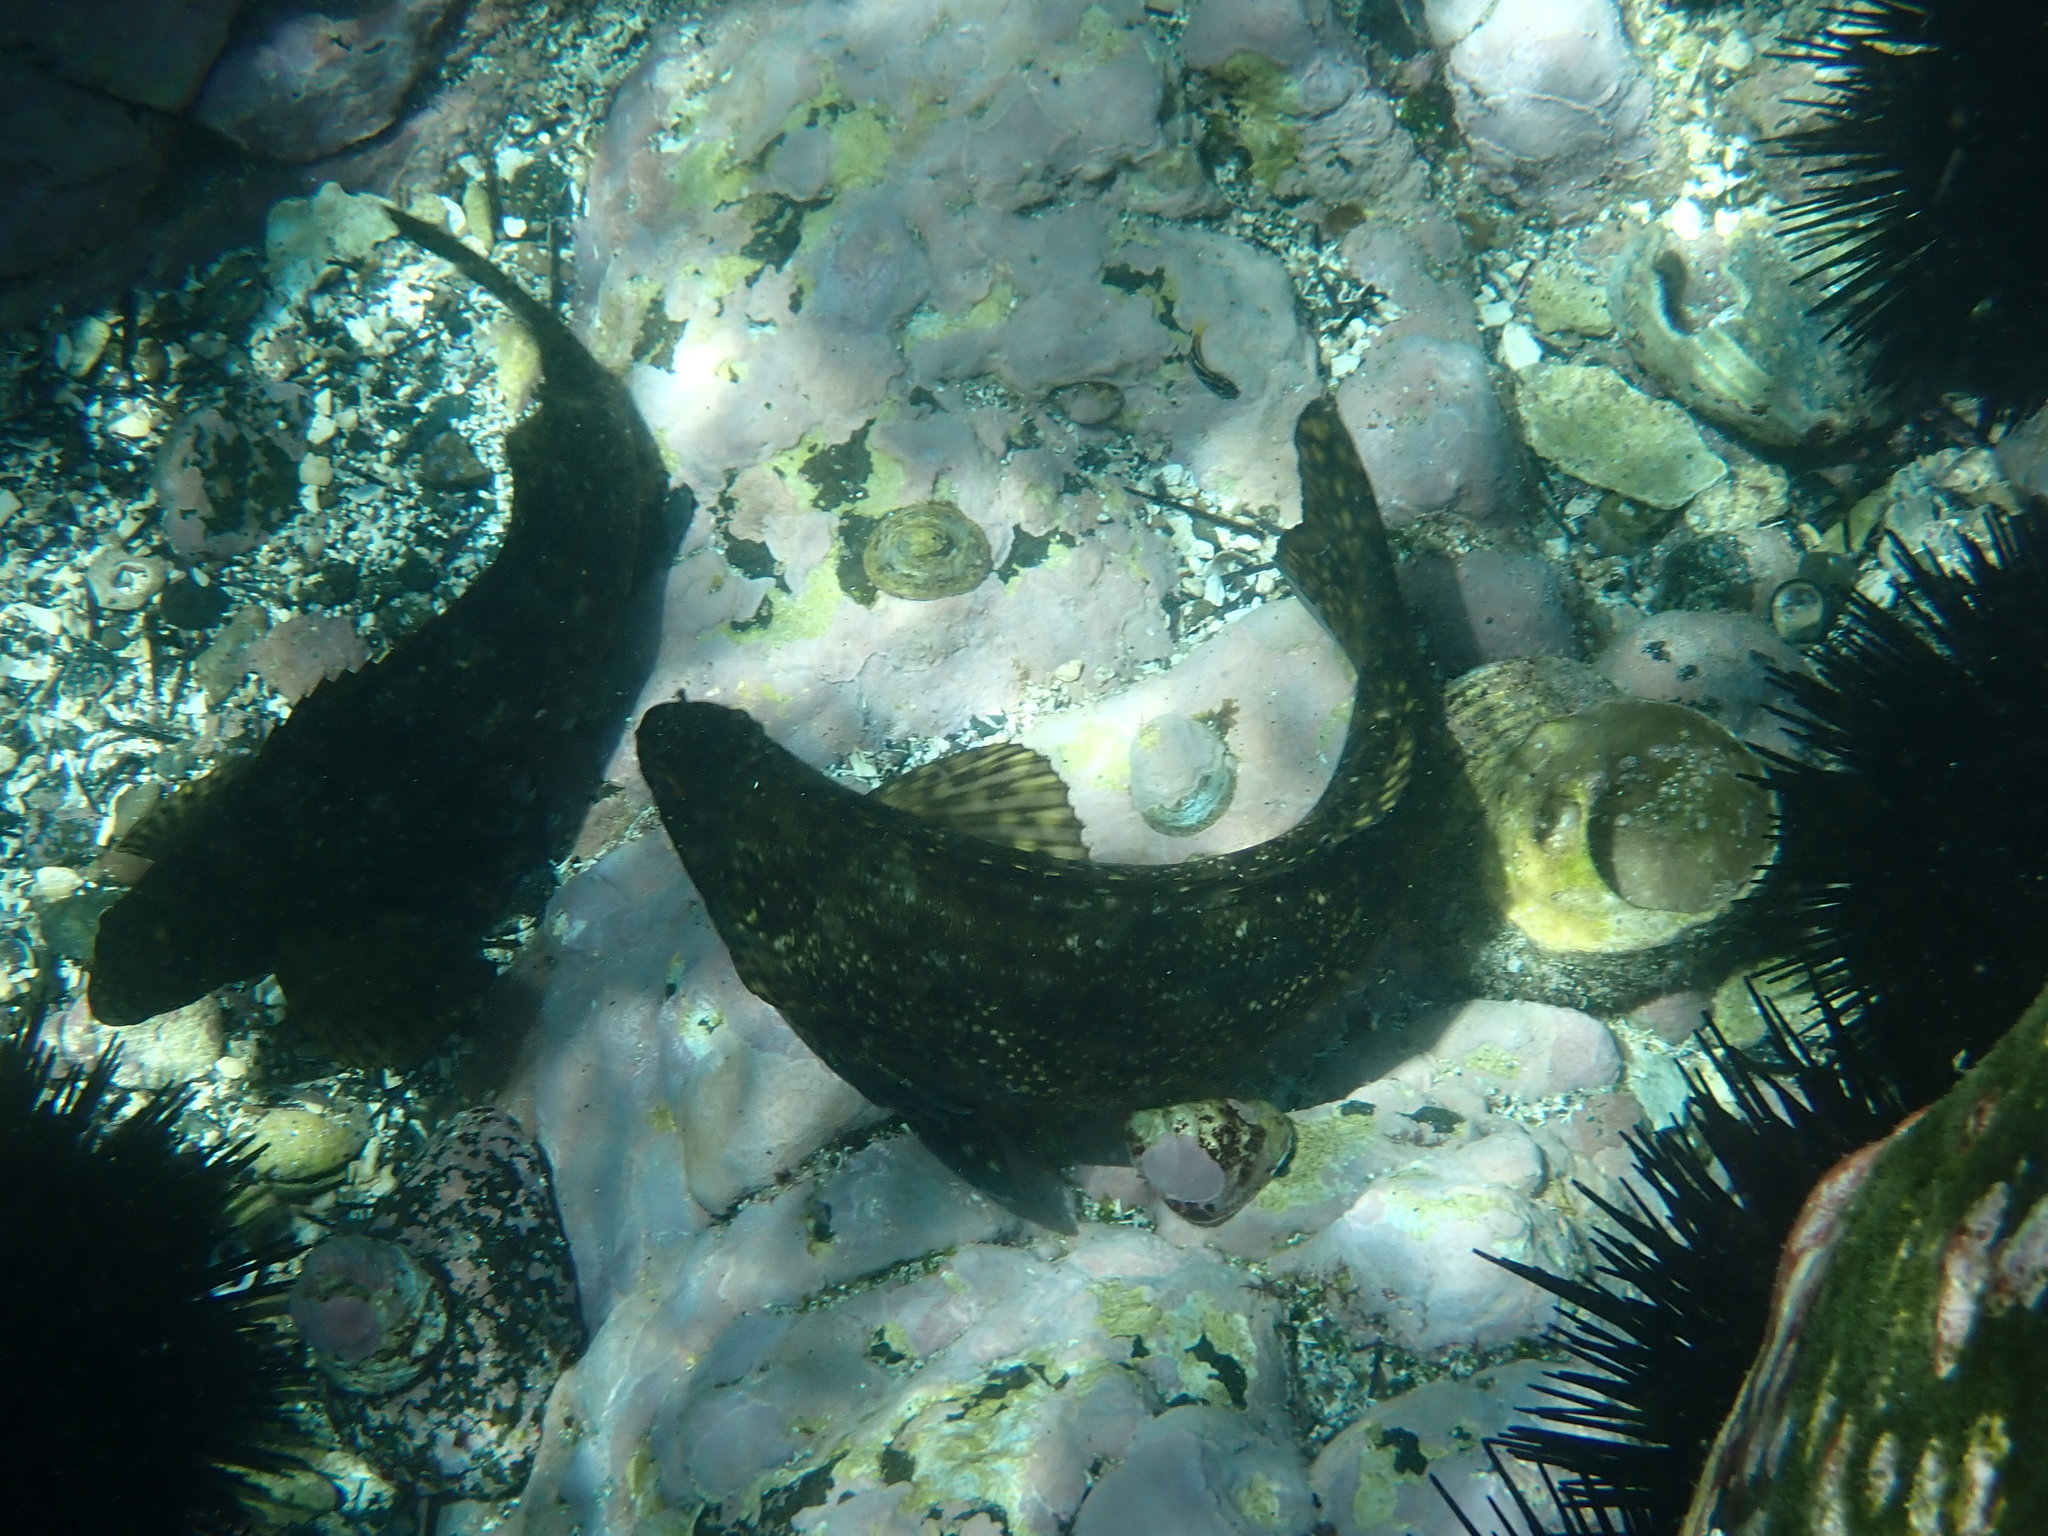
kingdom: Animalia
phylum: Chordata
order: Perciformes
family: Aplodactylidae
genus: Aplodactylus
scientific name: Aplodactylus lophodon
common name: Cockatoo fish
